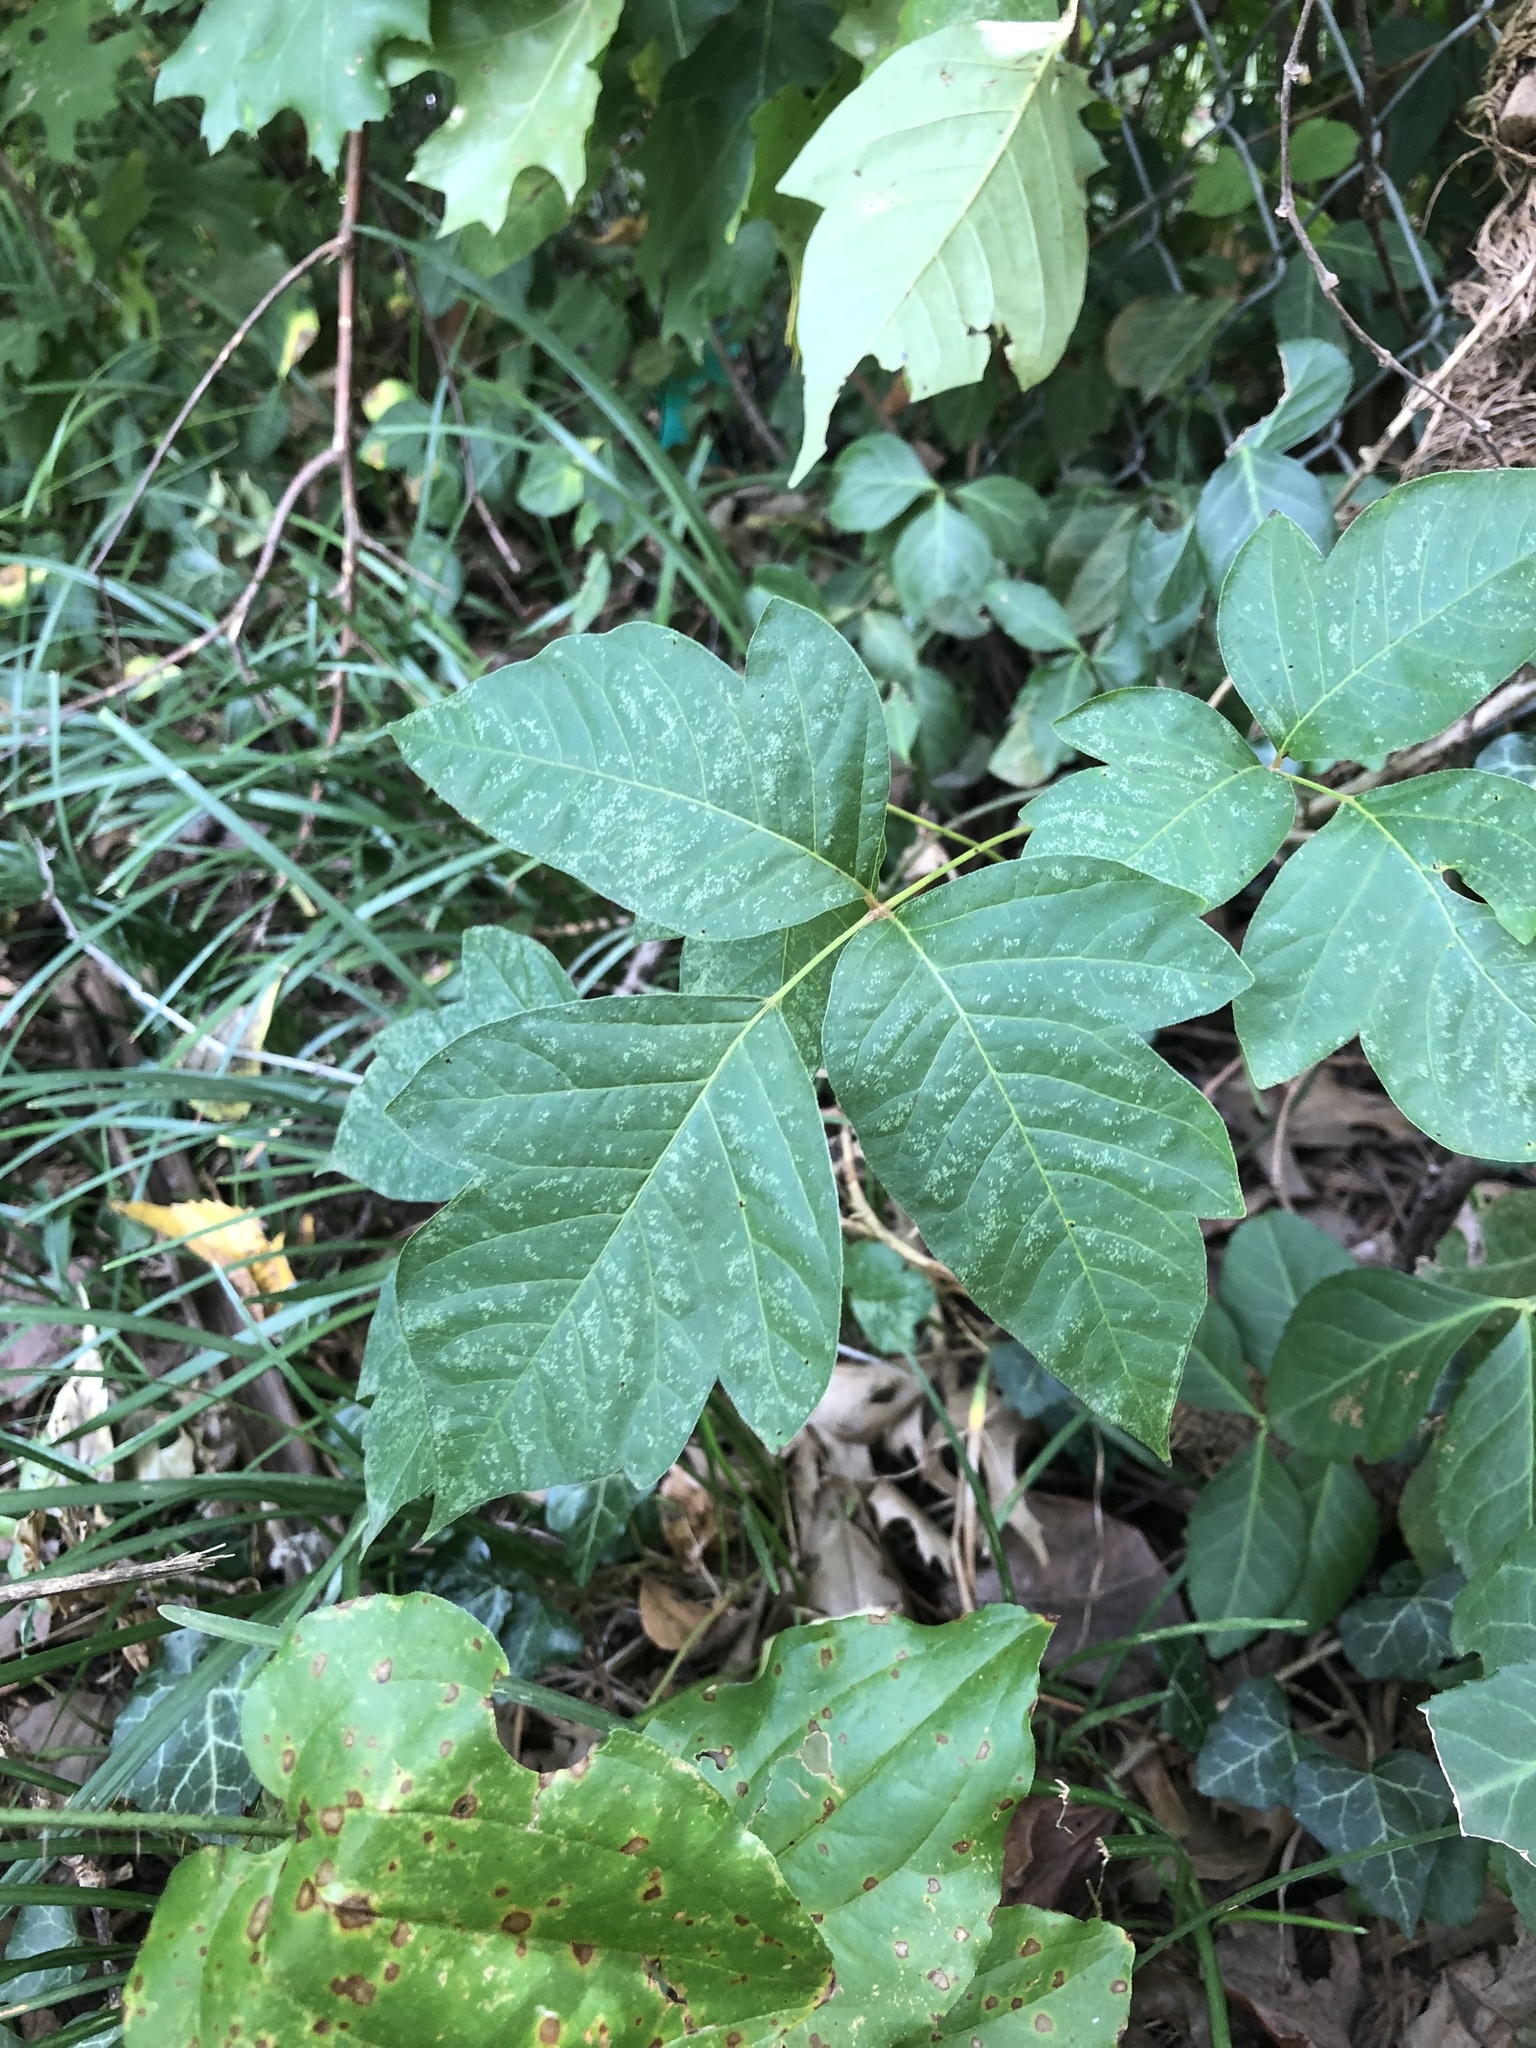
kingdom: Plantae
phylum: Tracheophyta
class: Magnoliopsida
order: Sapindales
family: Anacardiaceae
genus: Toxicodendron
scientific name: Toxicodendron radicans
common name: Poison ivy
